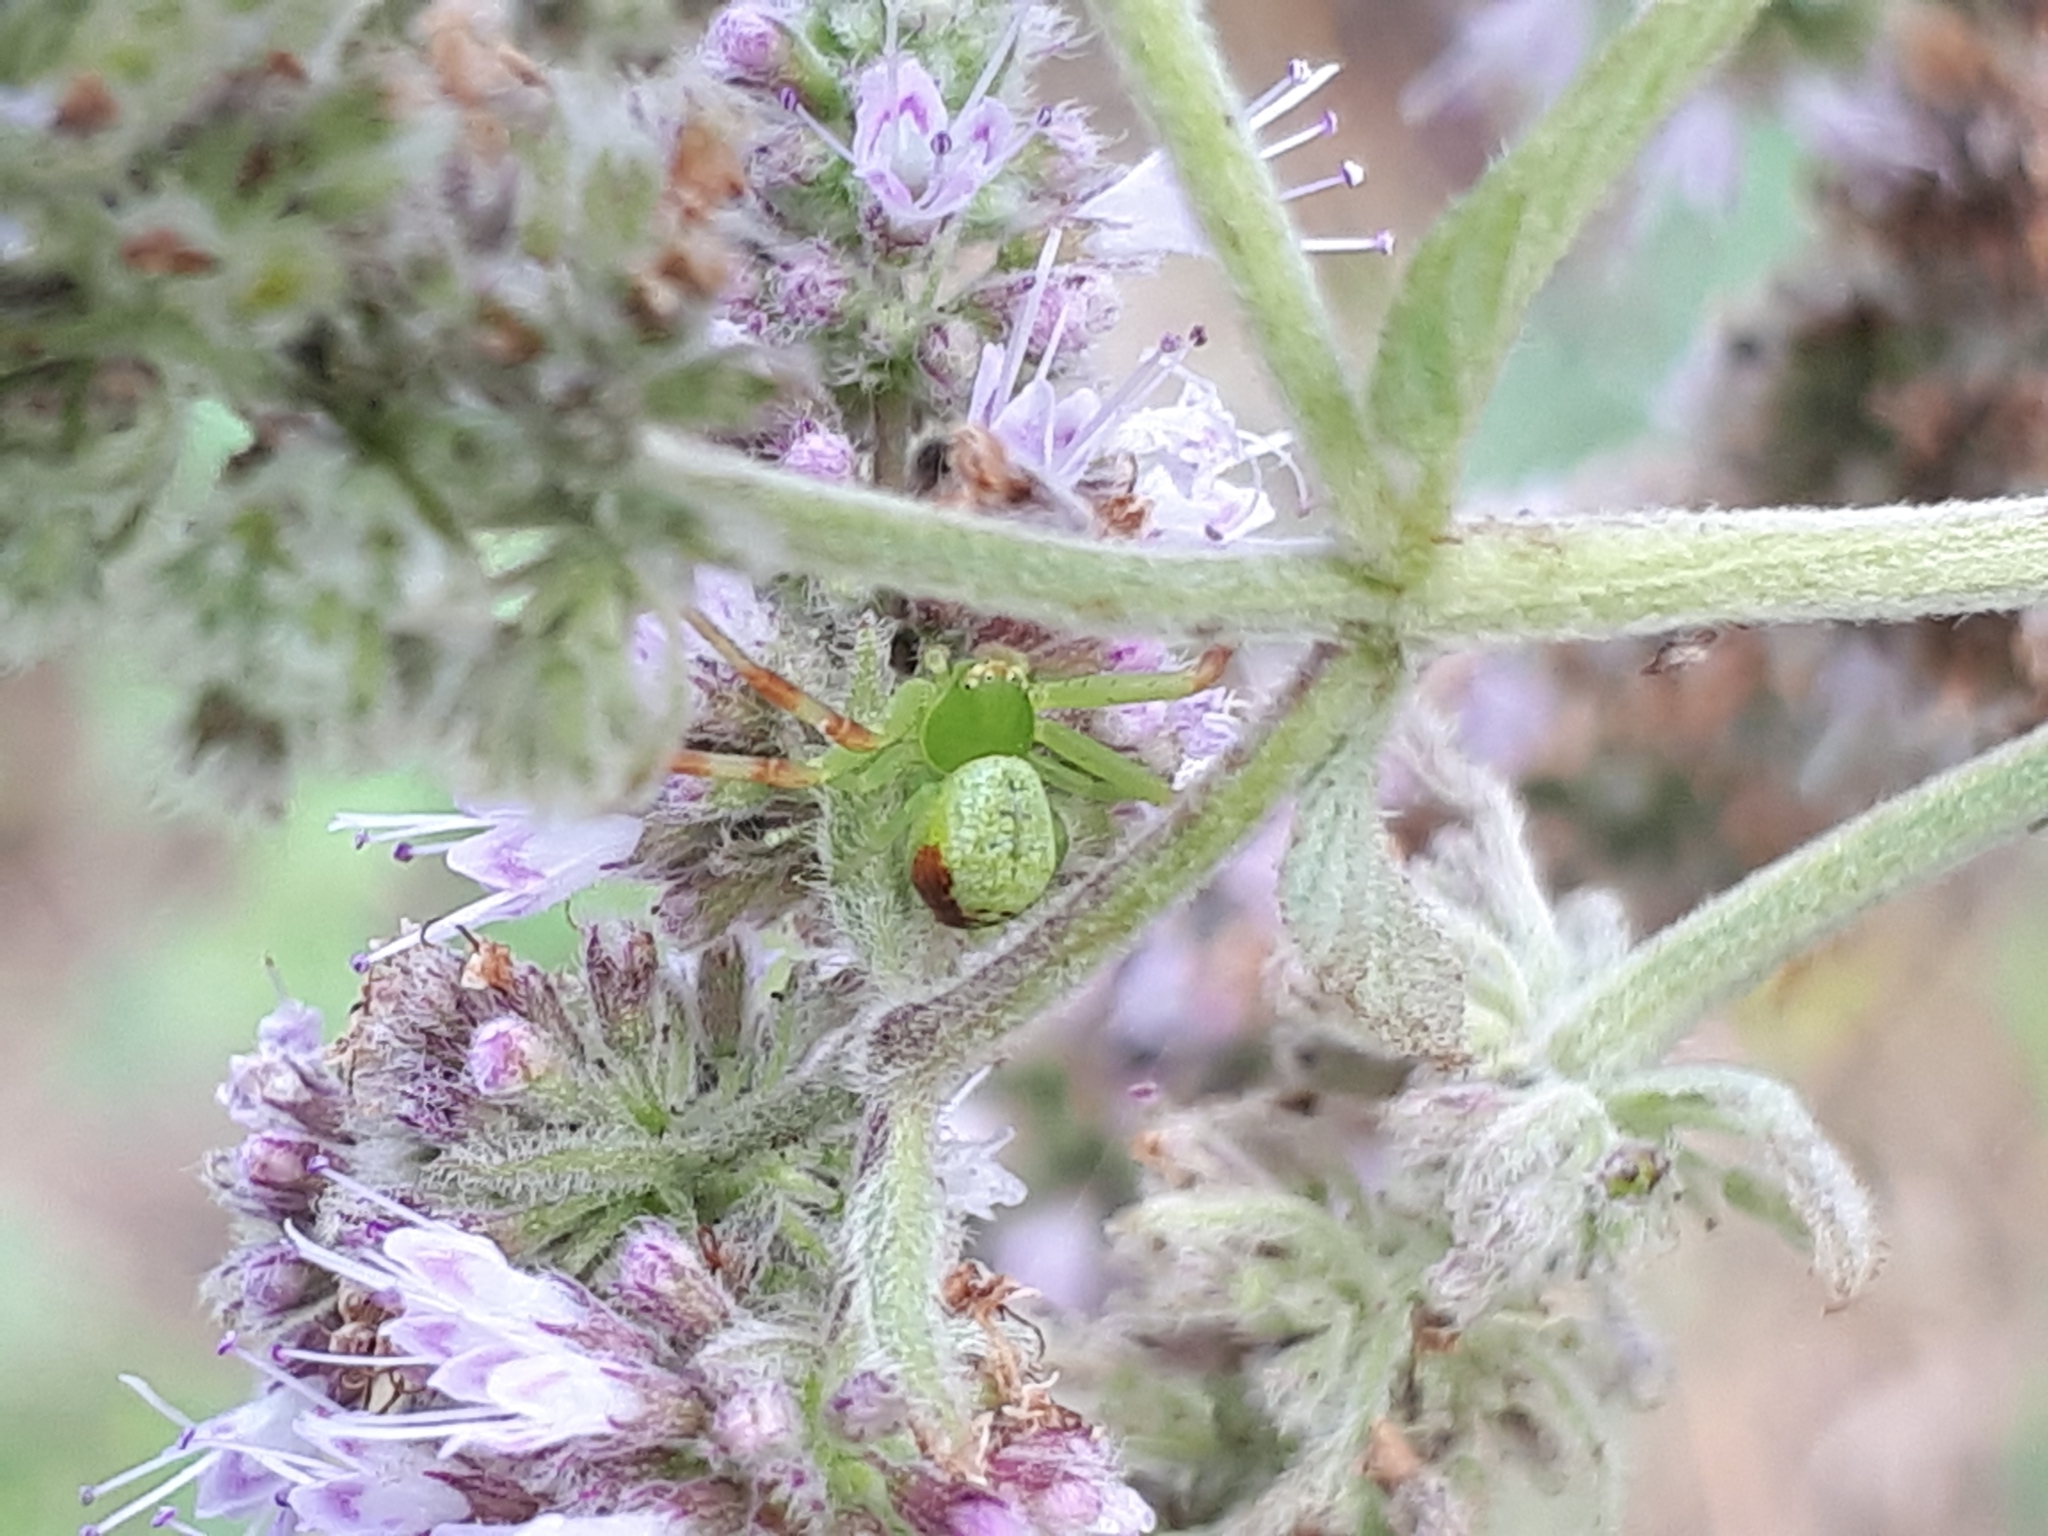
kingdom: Animalia
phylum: Arthropoda
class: Arachnida
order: Araneae
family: Thomisidae
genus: Ebrechtella
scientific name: Ebrechtella tricuspidata
